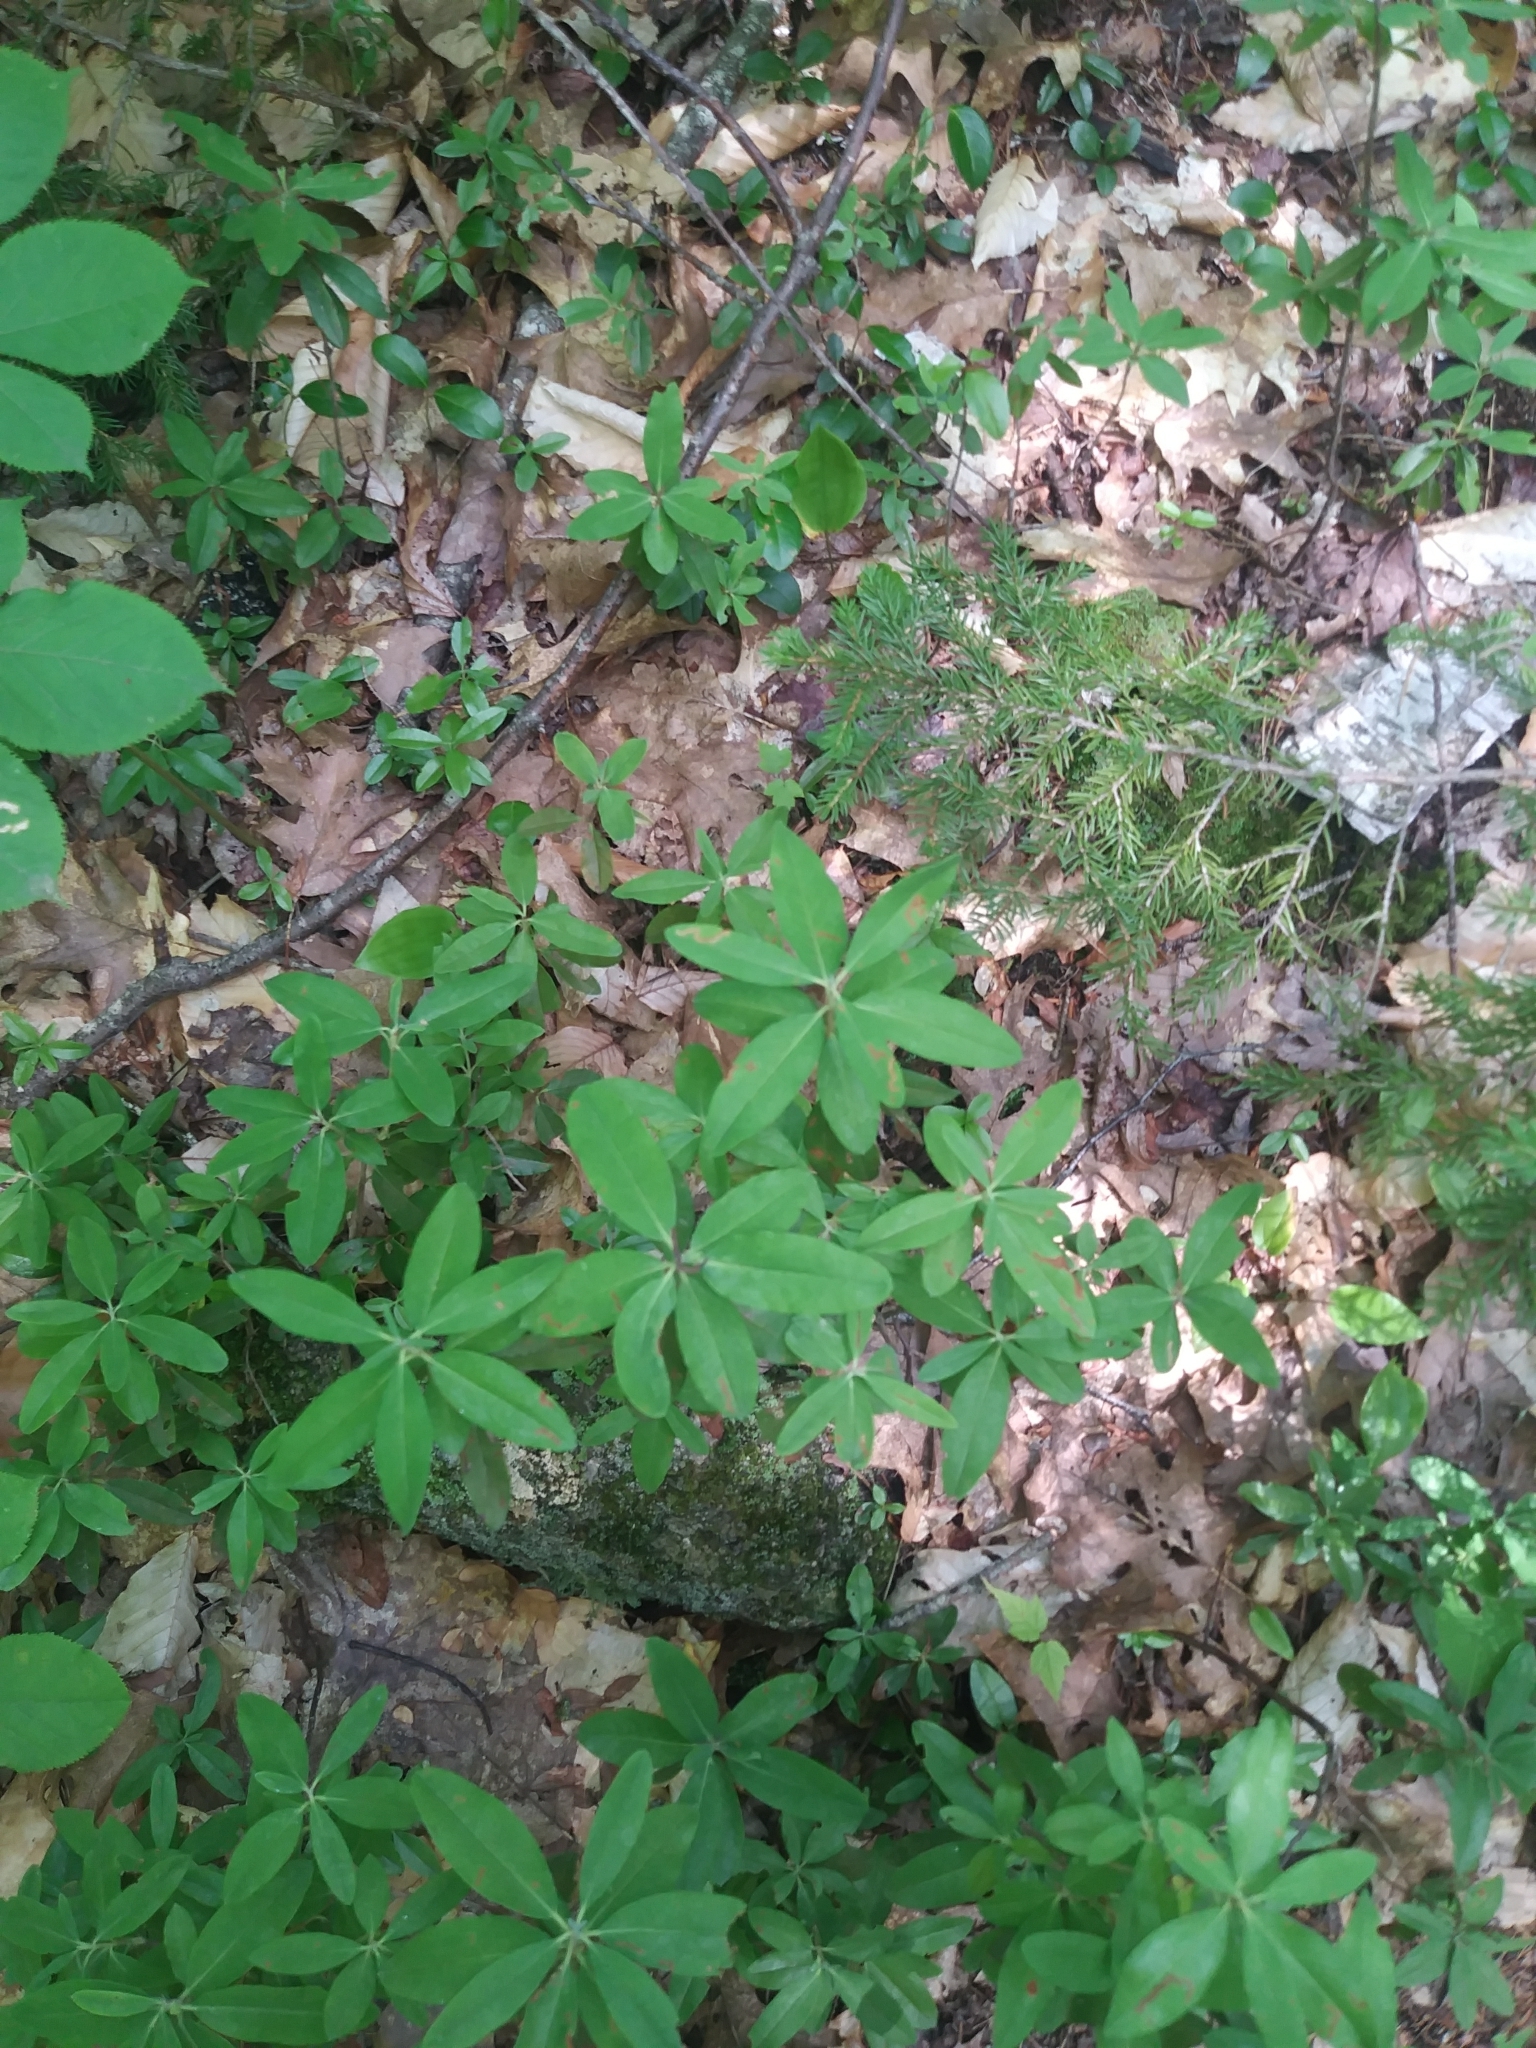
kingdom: Plantae
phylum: Tracheophyta
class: Magnoliopsida
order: Ericales
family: Ericaceae
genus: Kalmia
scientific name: Kalmia angustifolia
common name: Sheep-laurel
